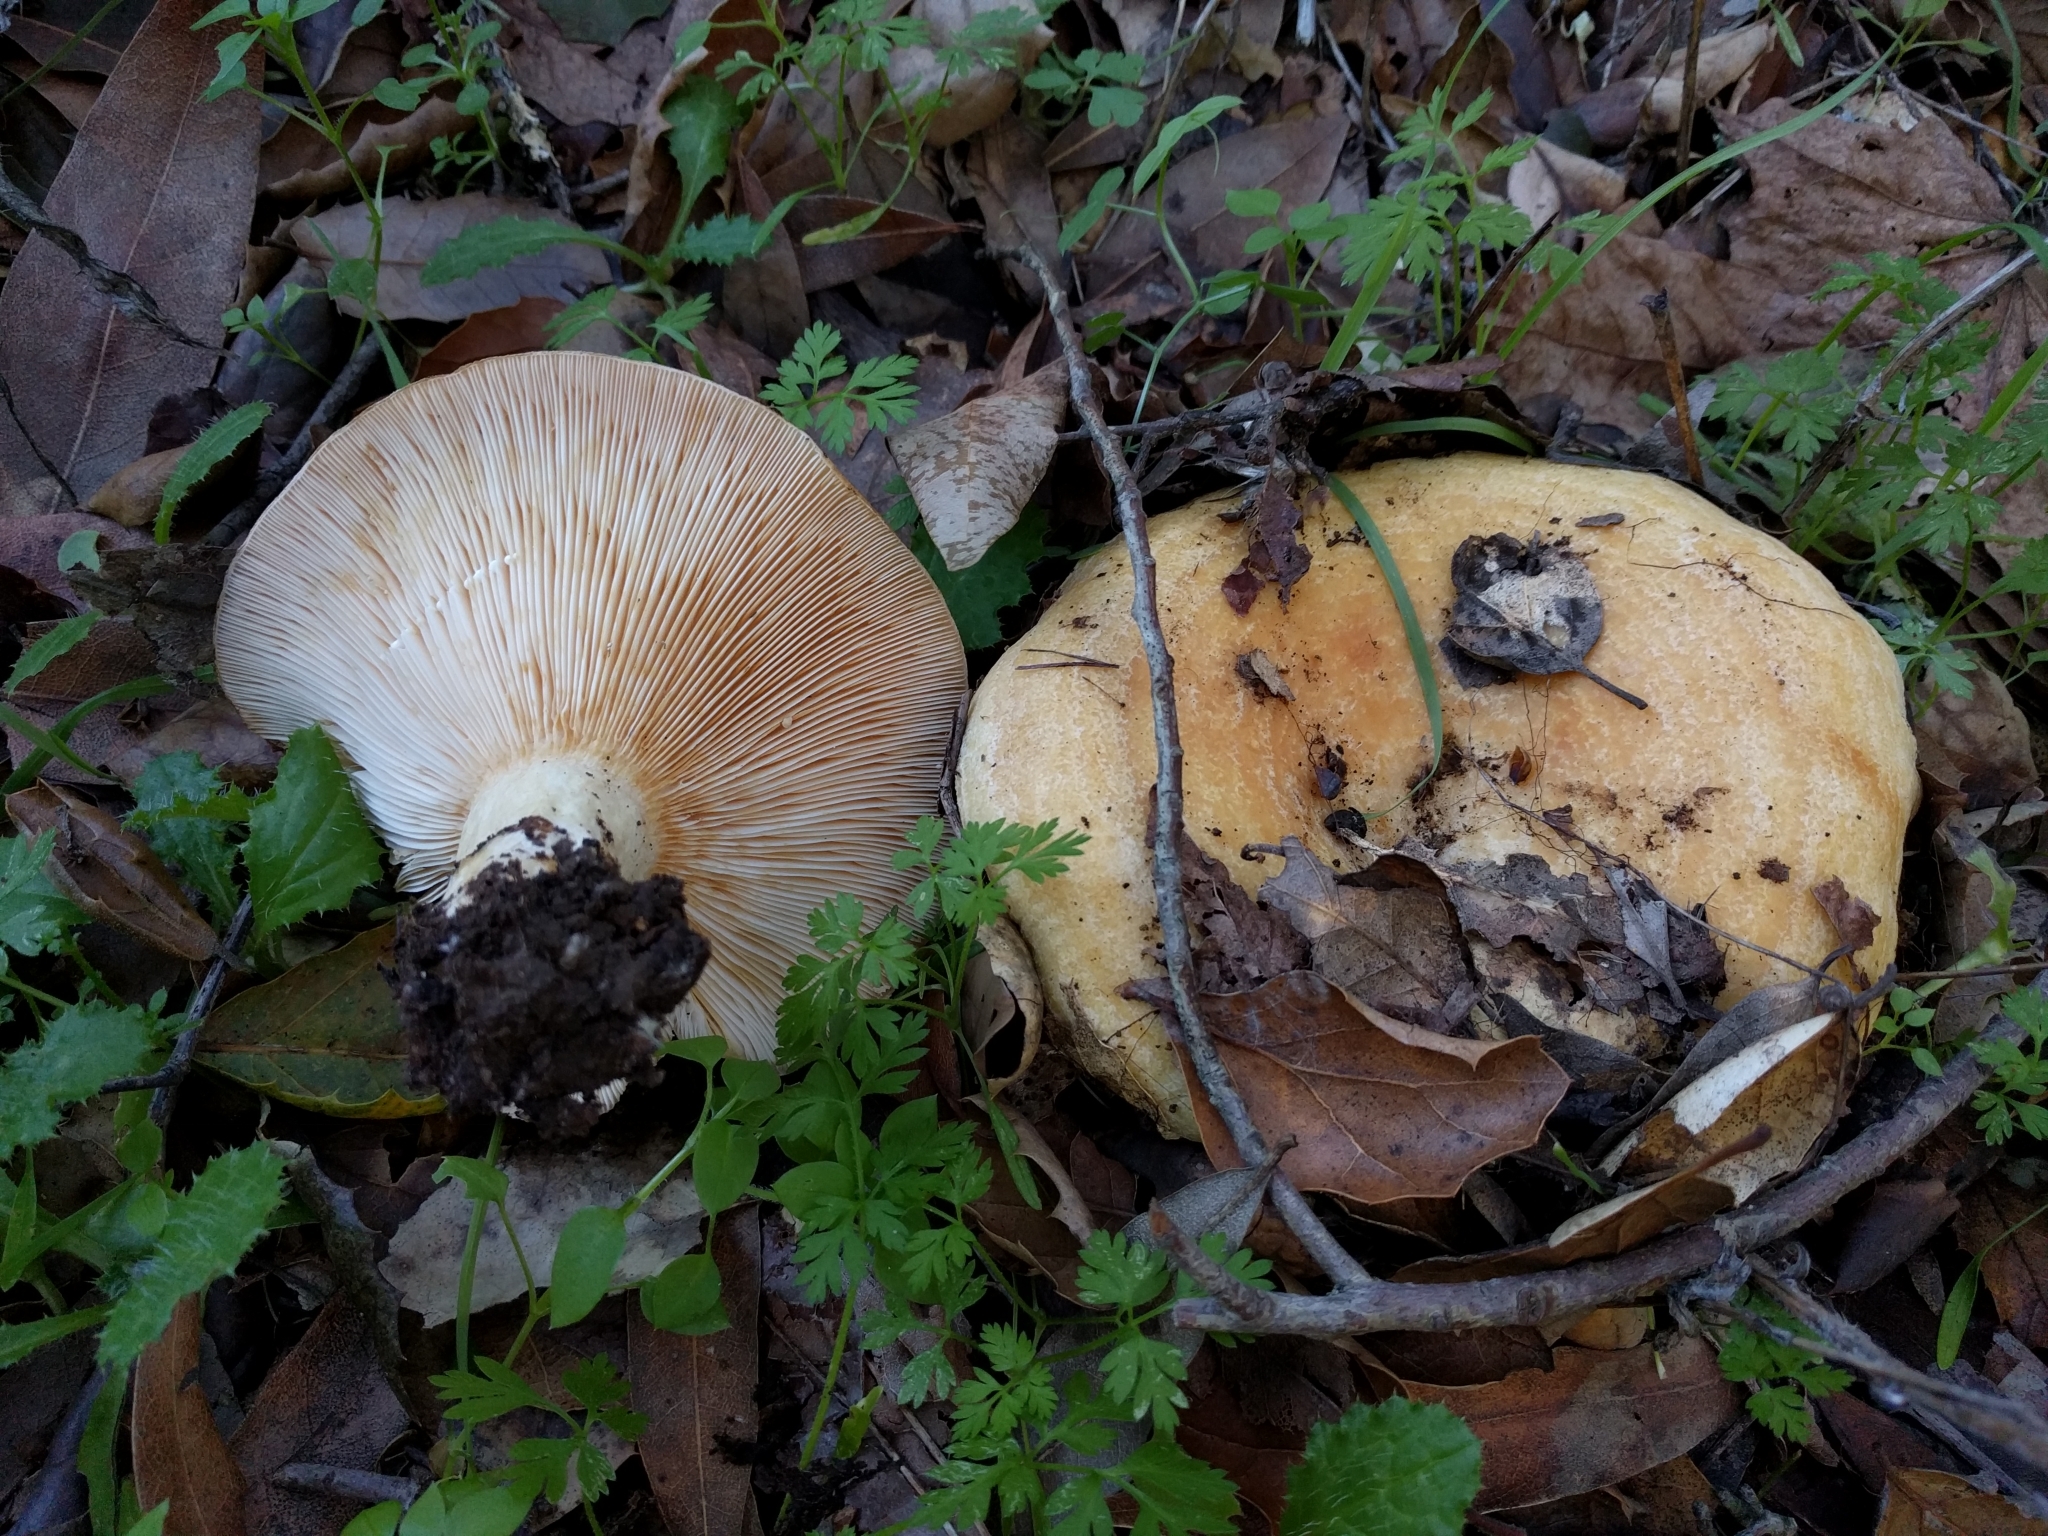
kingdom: Fungi
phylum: Basidiomycota
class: Agaricomycetes
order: Russulales
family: Russulaceae
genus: Lactarius
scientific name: Lactarius alnicola
